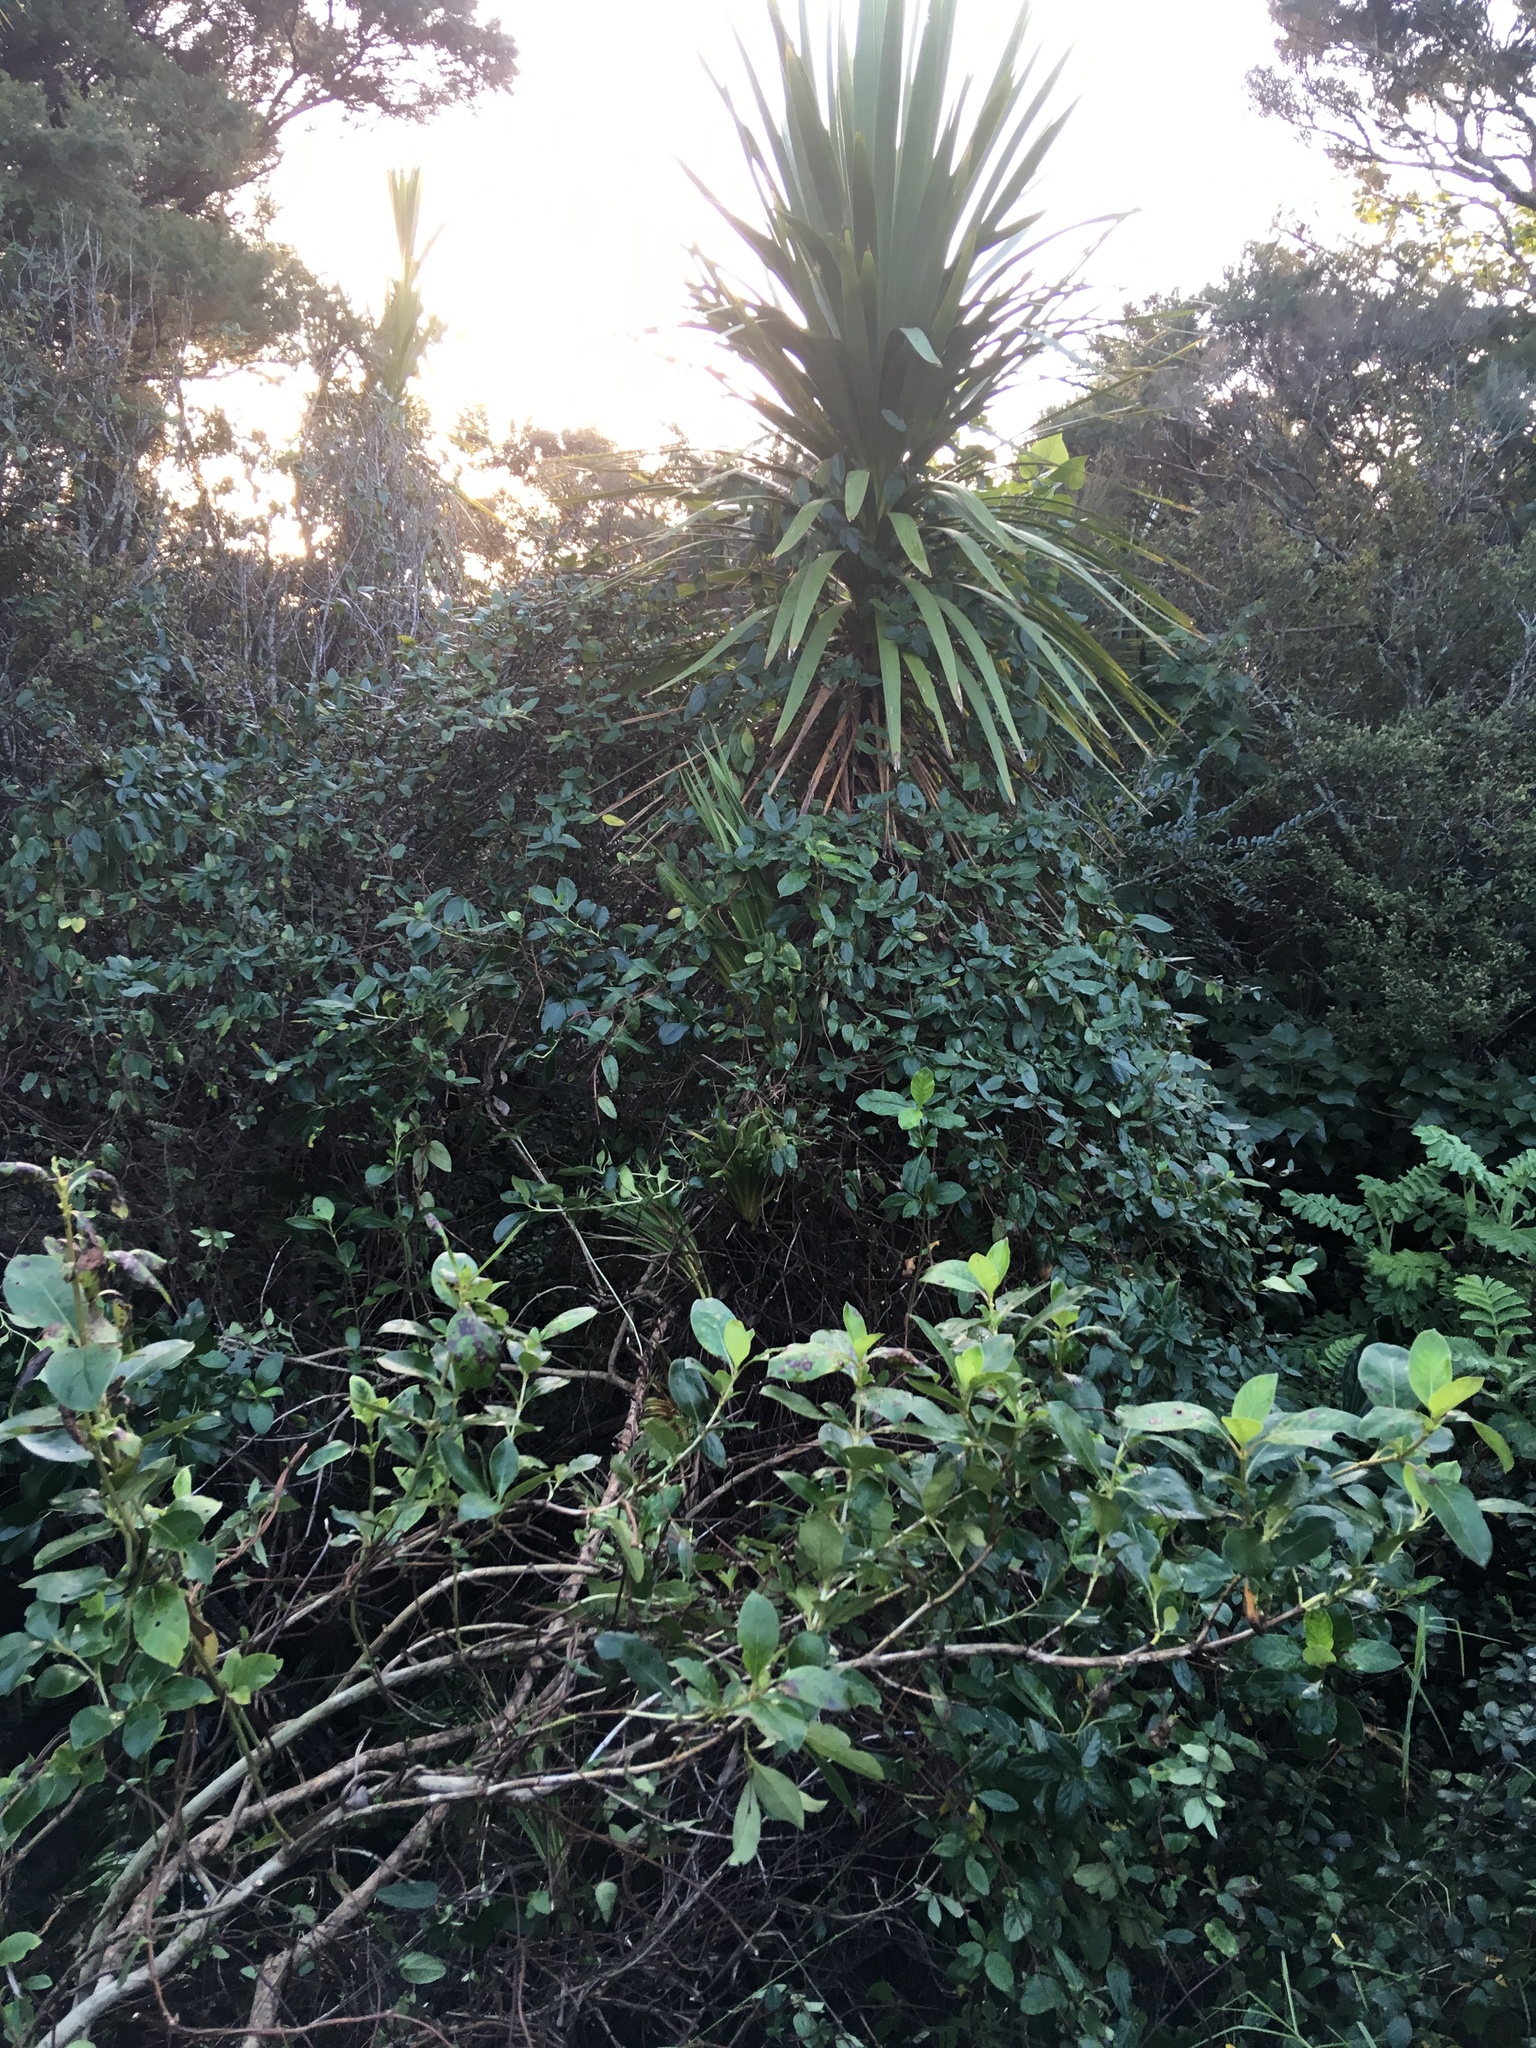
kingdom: Plantae
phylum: Tracheophyta
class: Liliopsida
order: Asparagales
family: Asparagaceae
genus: Cordyline
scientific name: Cordyline australis
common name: Cabbage-palm
